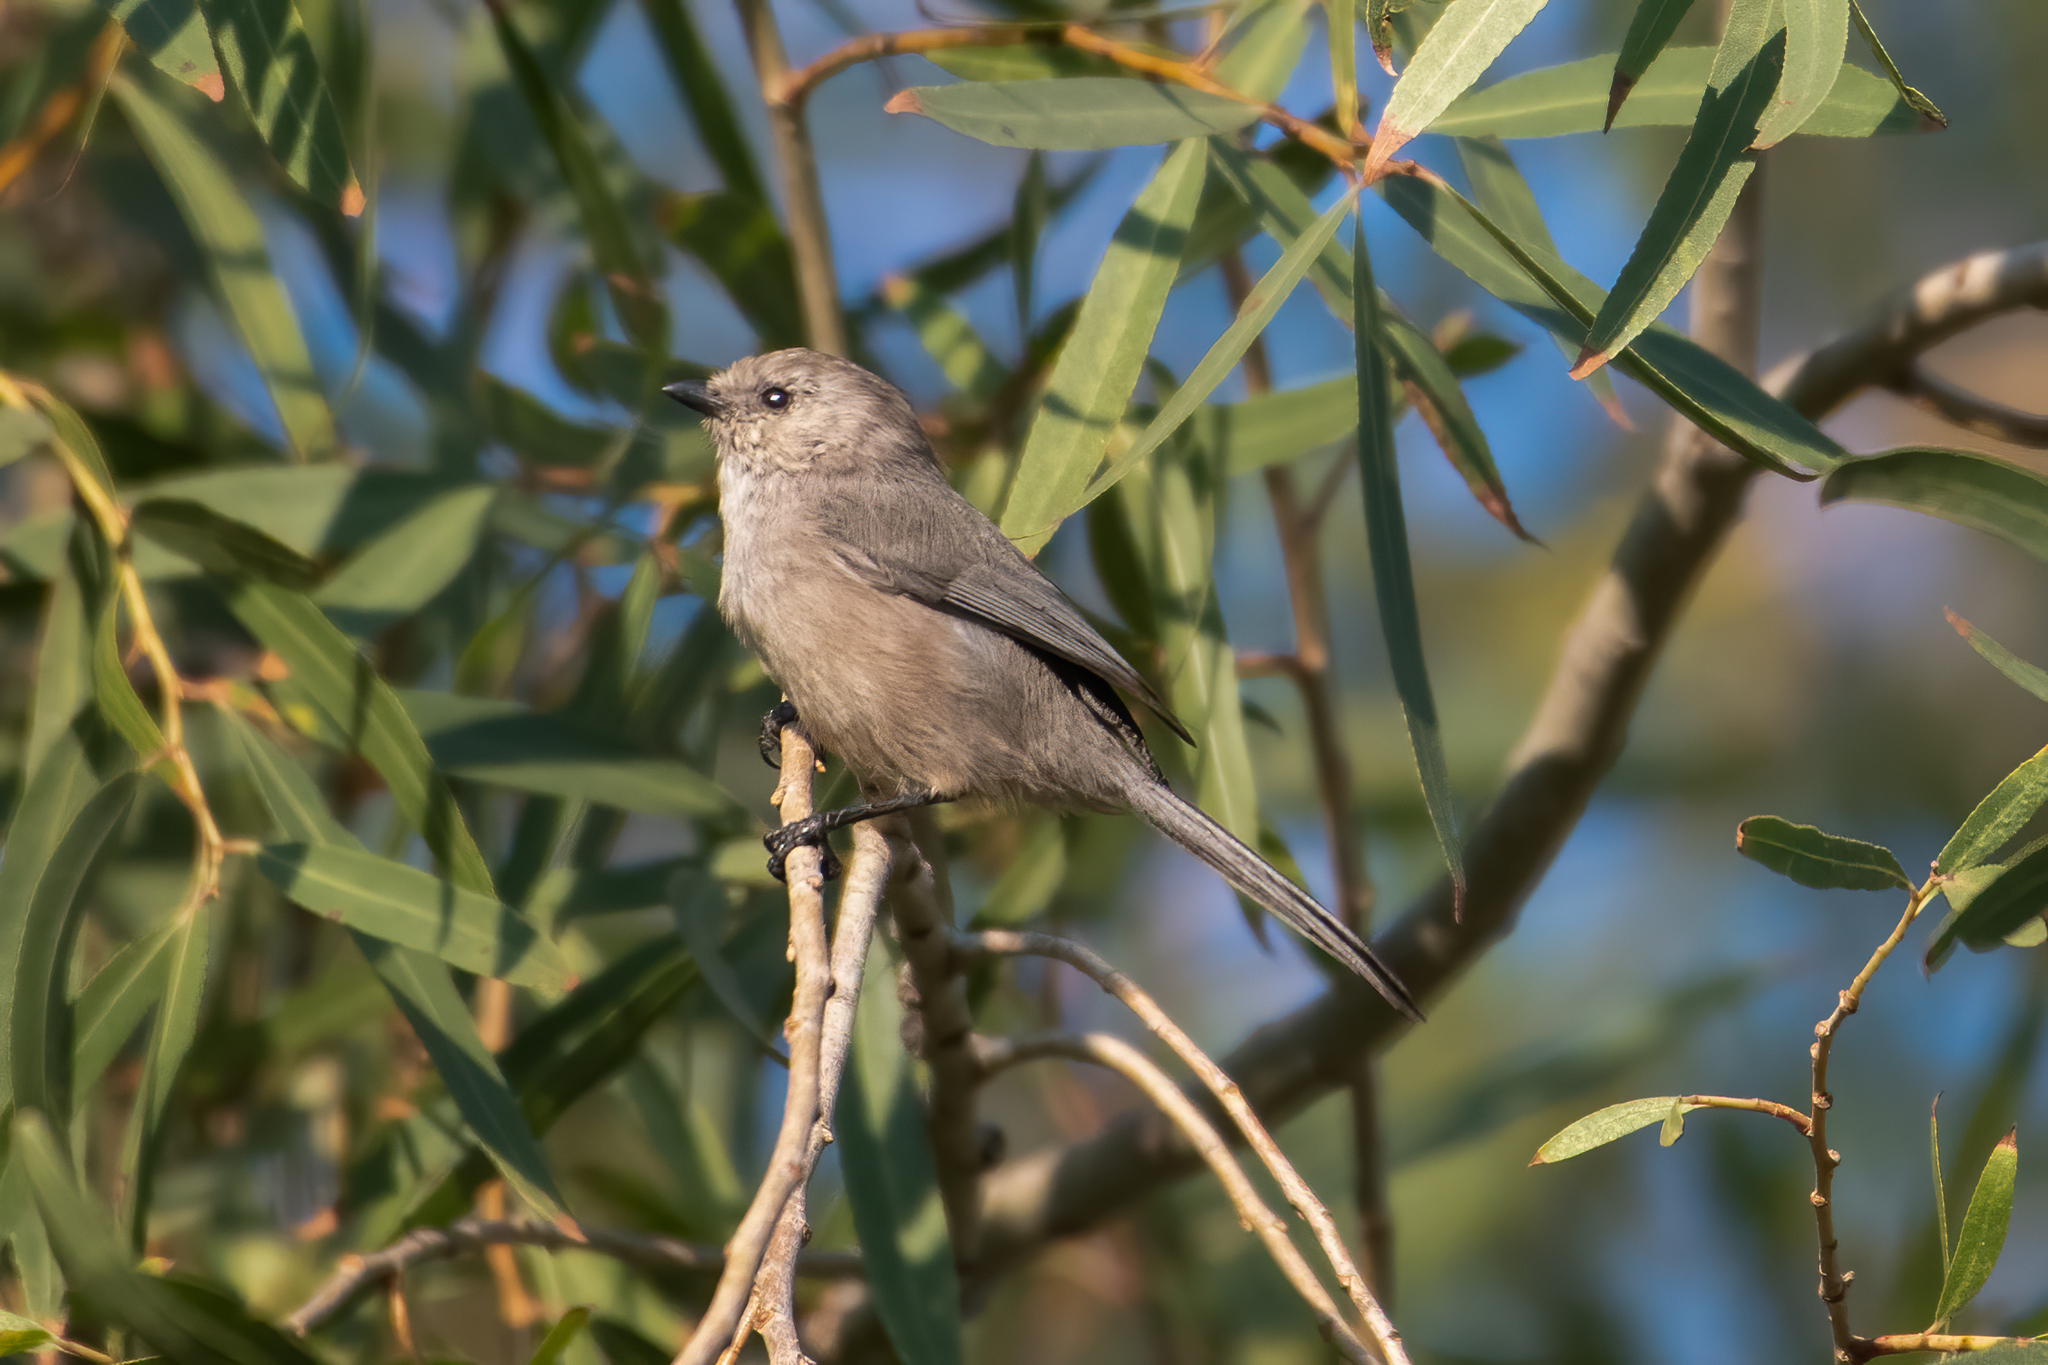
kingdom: Animalia
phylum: Chordata
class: Aves
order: Passeriformes
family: Aegithalidae
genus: Psaltriparus
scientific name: Psaltriparus minimus
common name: American bushtit
